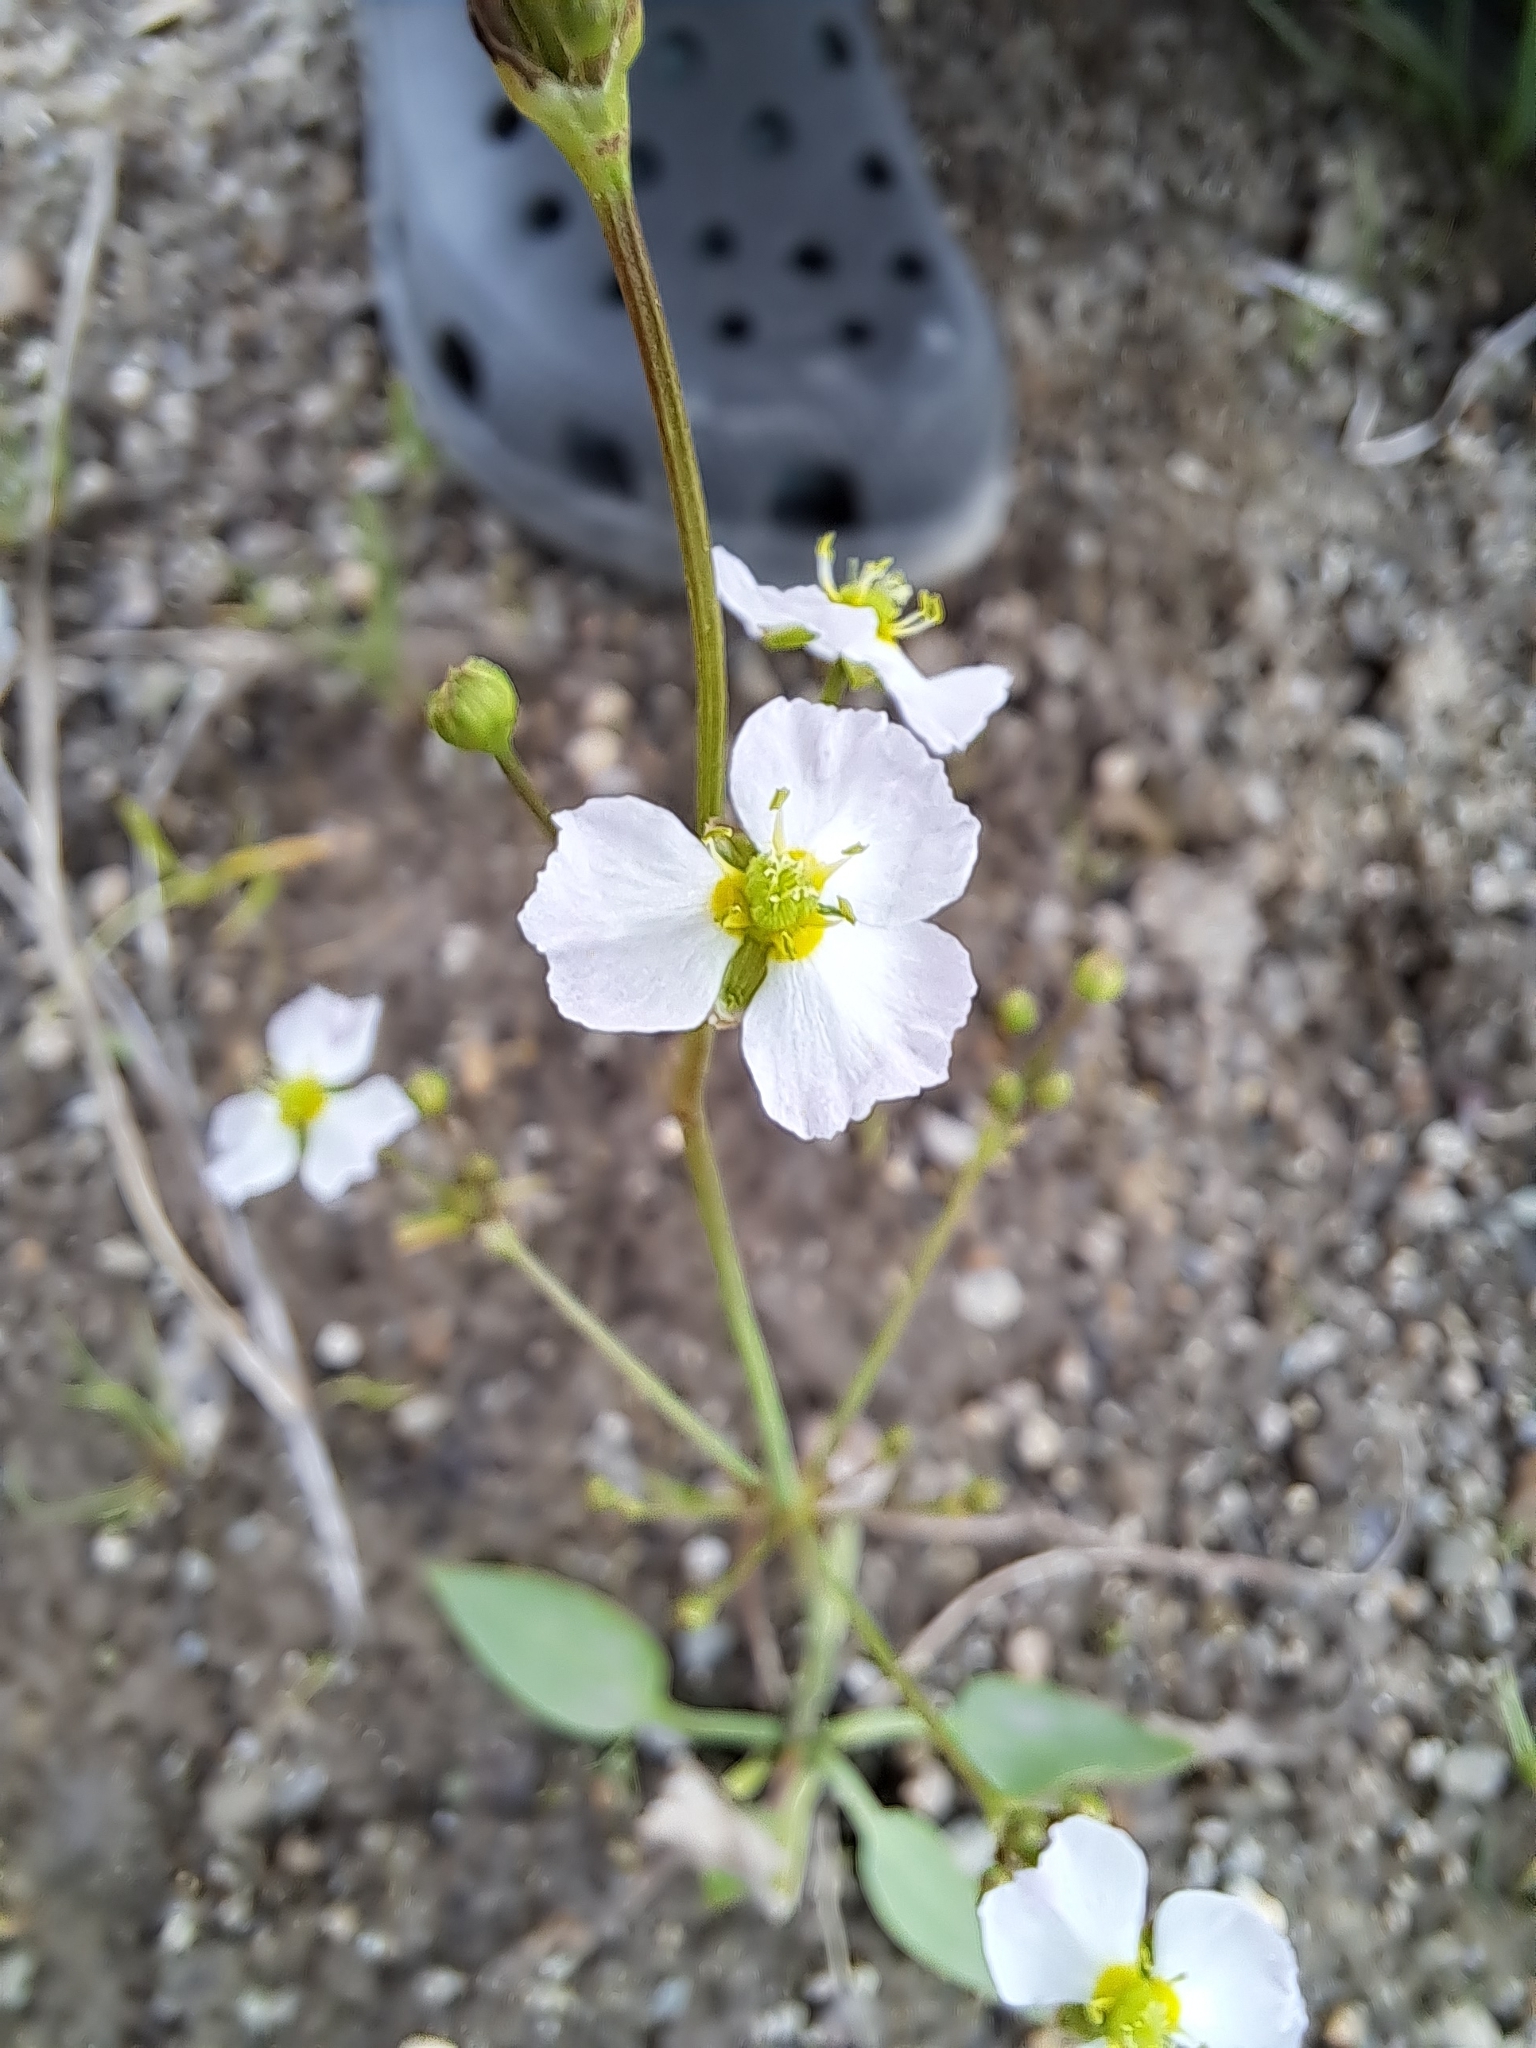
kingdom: Plantae
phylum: Tracheophyta
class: Liliopsida
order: Alismatales
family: Alismataceae
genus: Alisma
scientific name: Alisma plantago-aquatica
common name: Water-plantain
